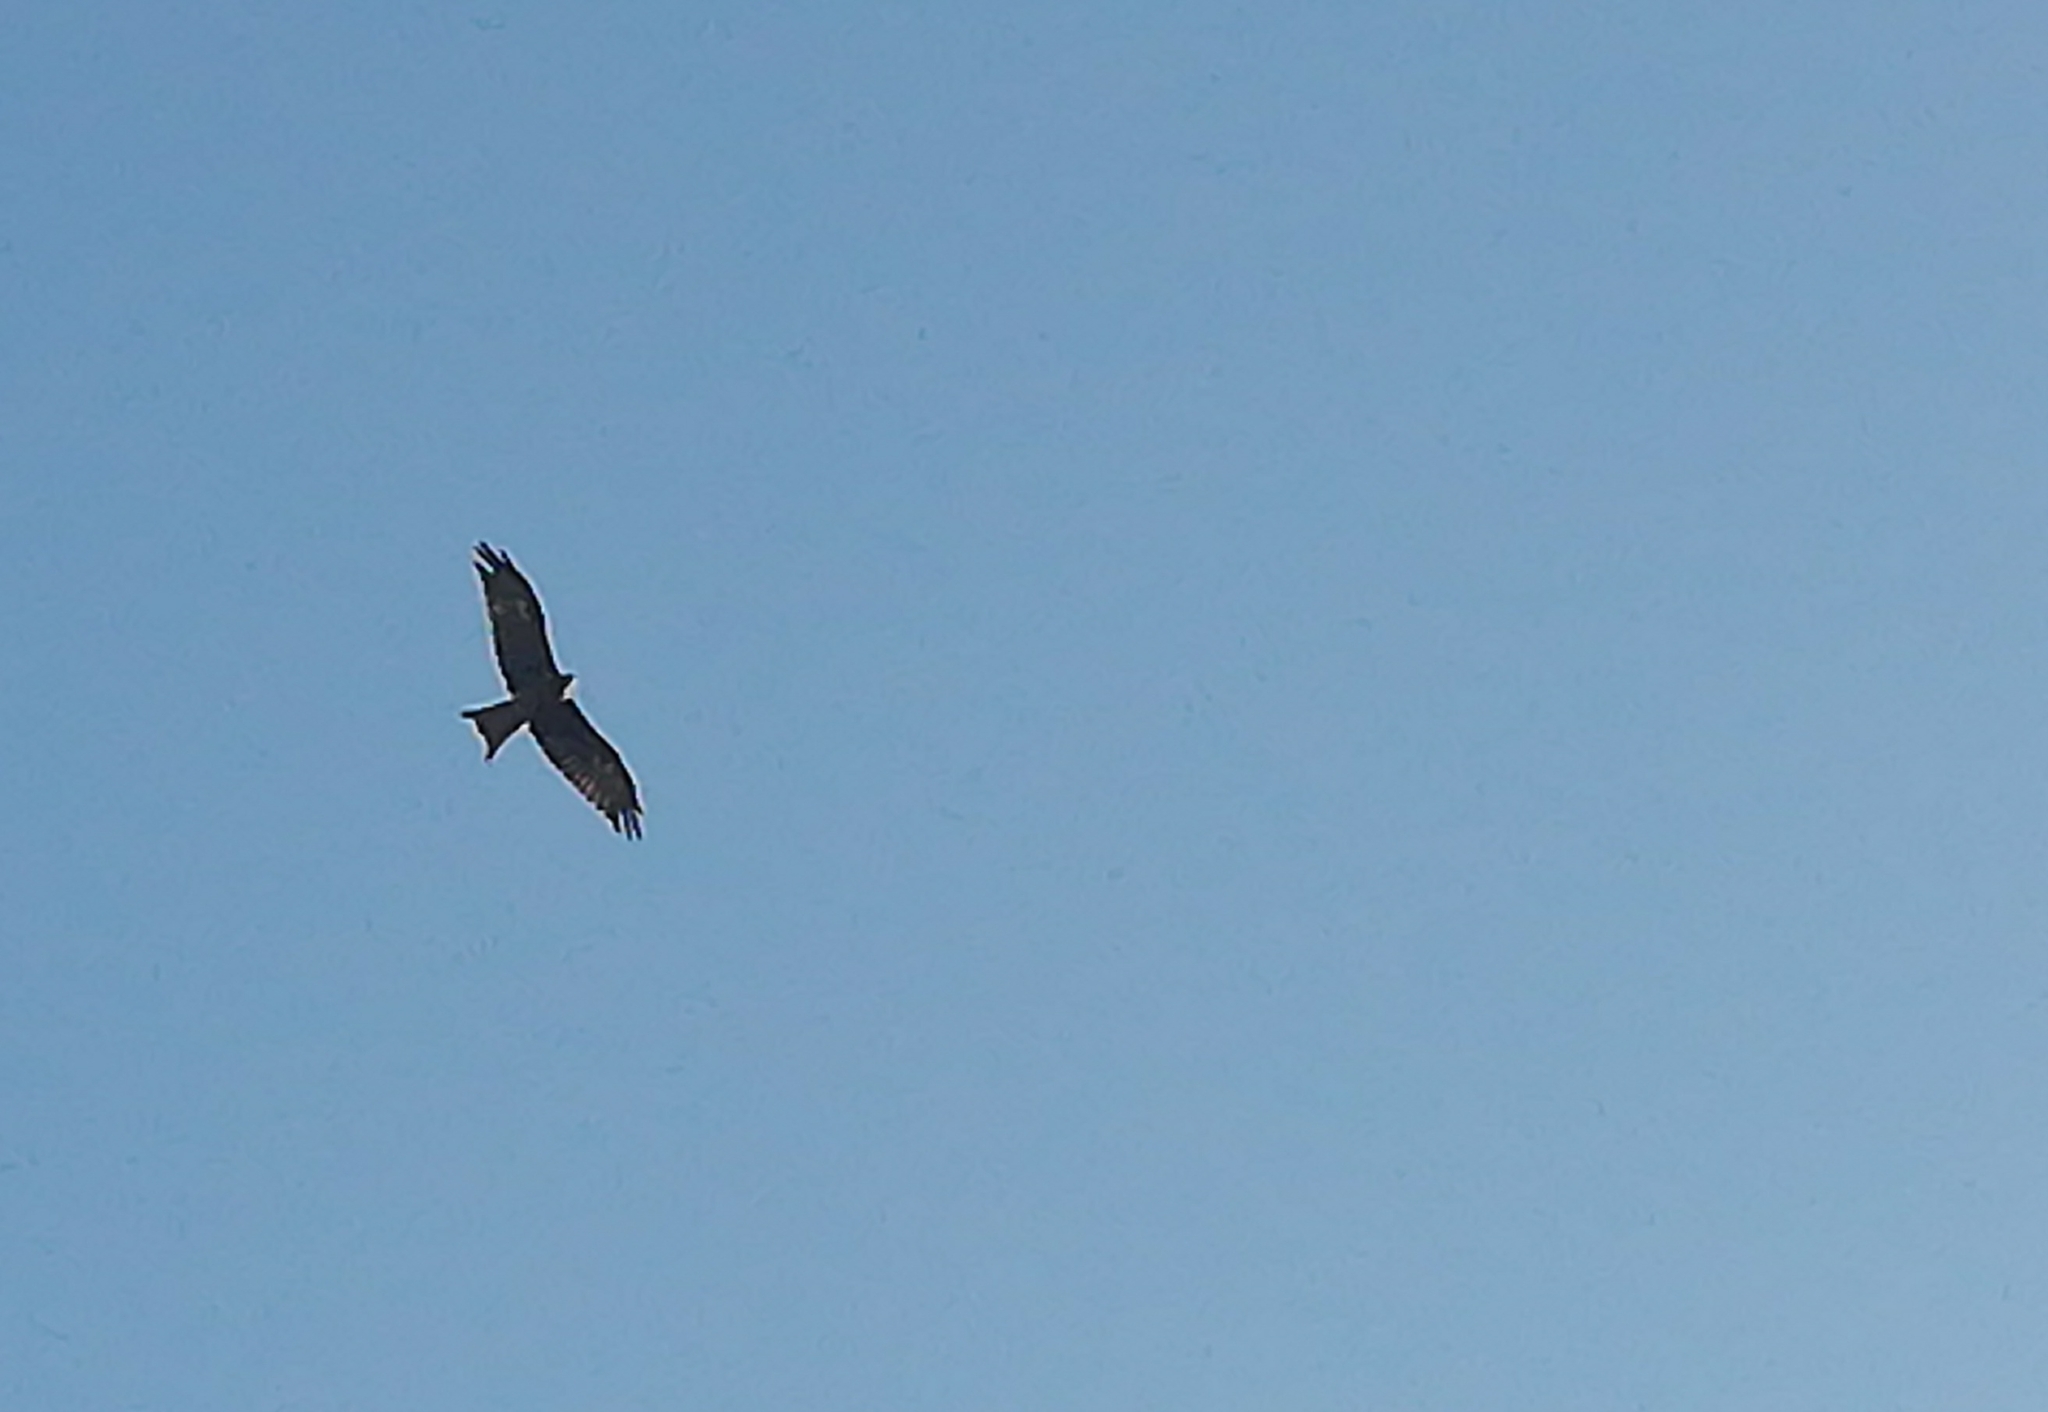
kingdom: Animalia
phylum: Chordata
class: Aves
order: Accipitriformes
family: Accipitridae
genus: Milvus
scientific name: Milvus migrans
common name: Black kite
